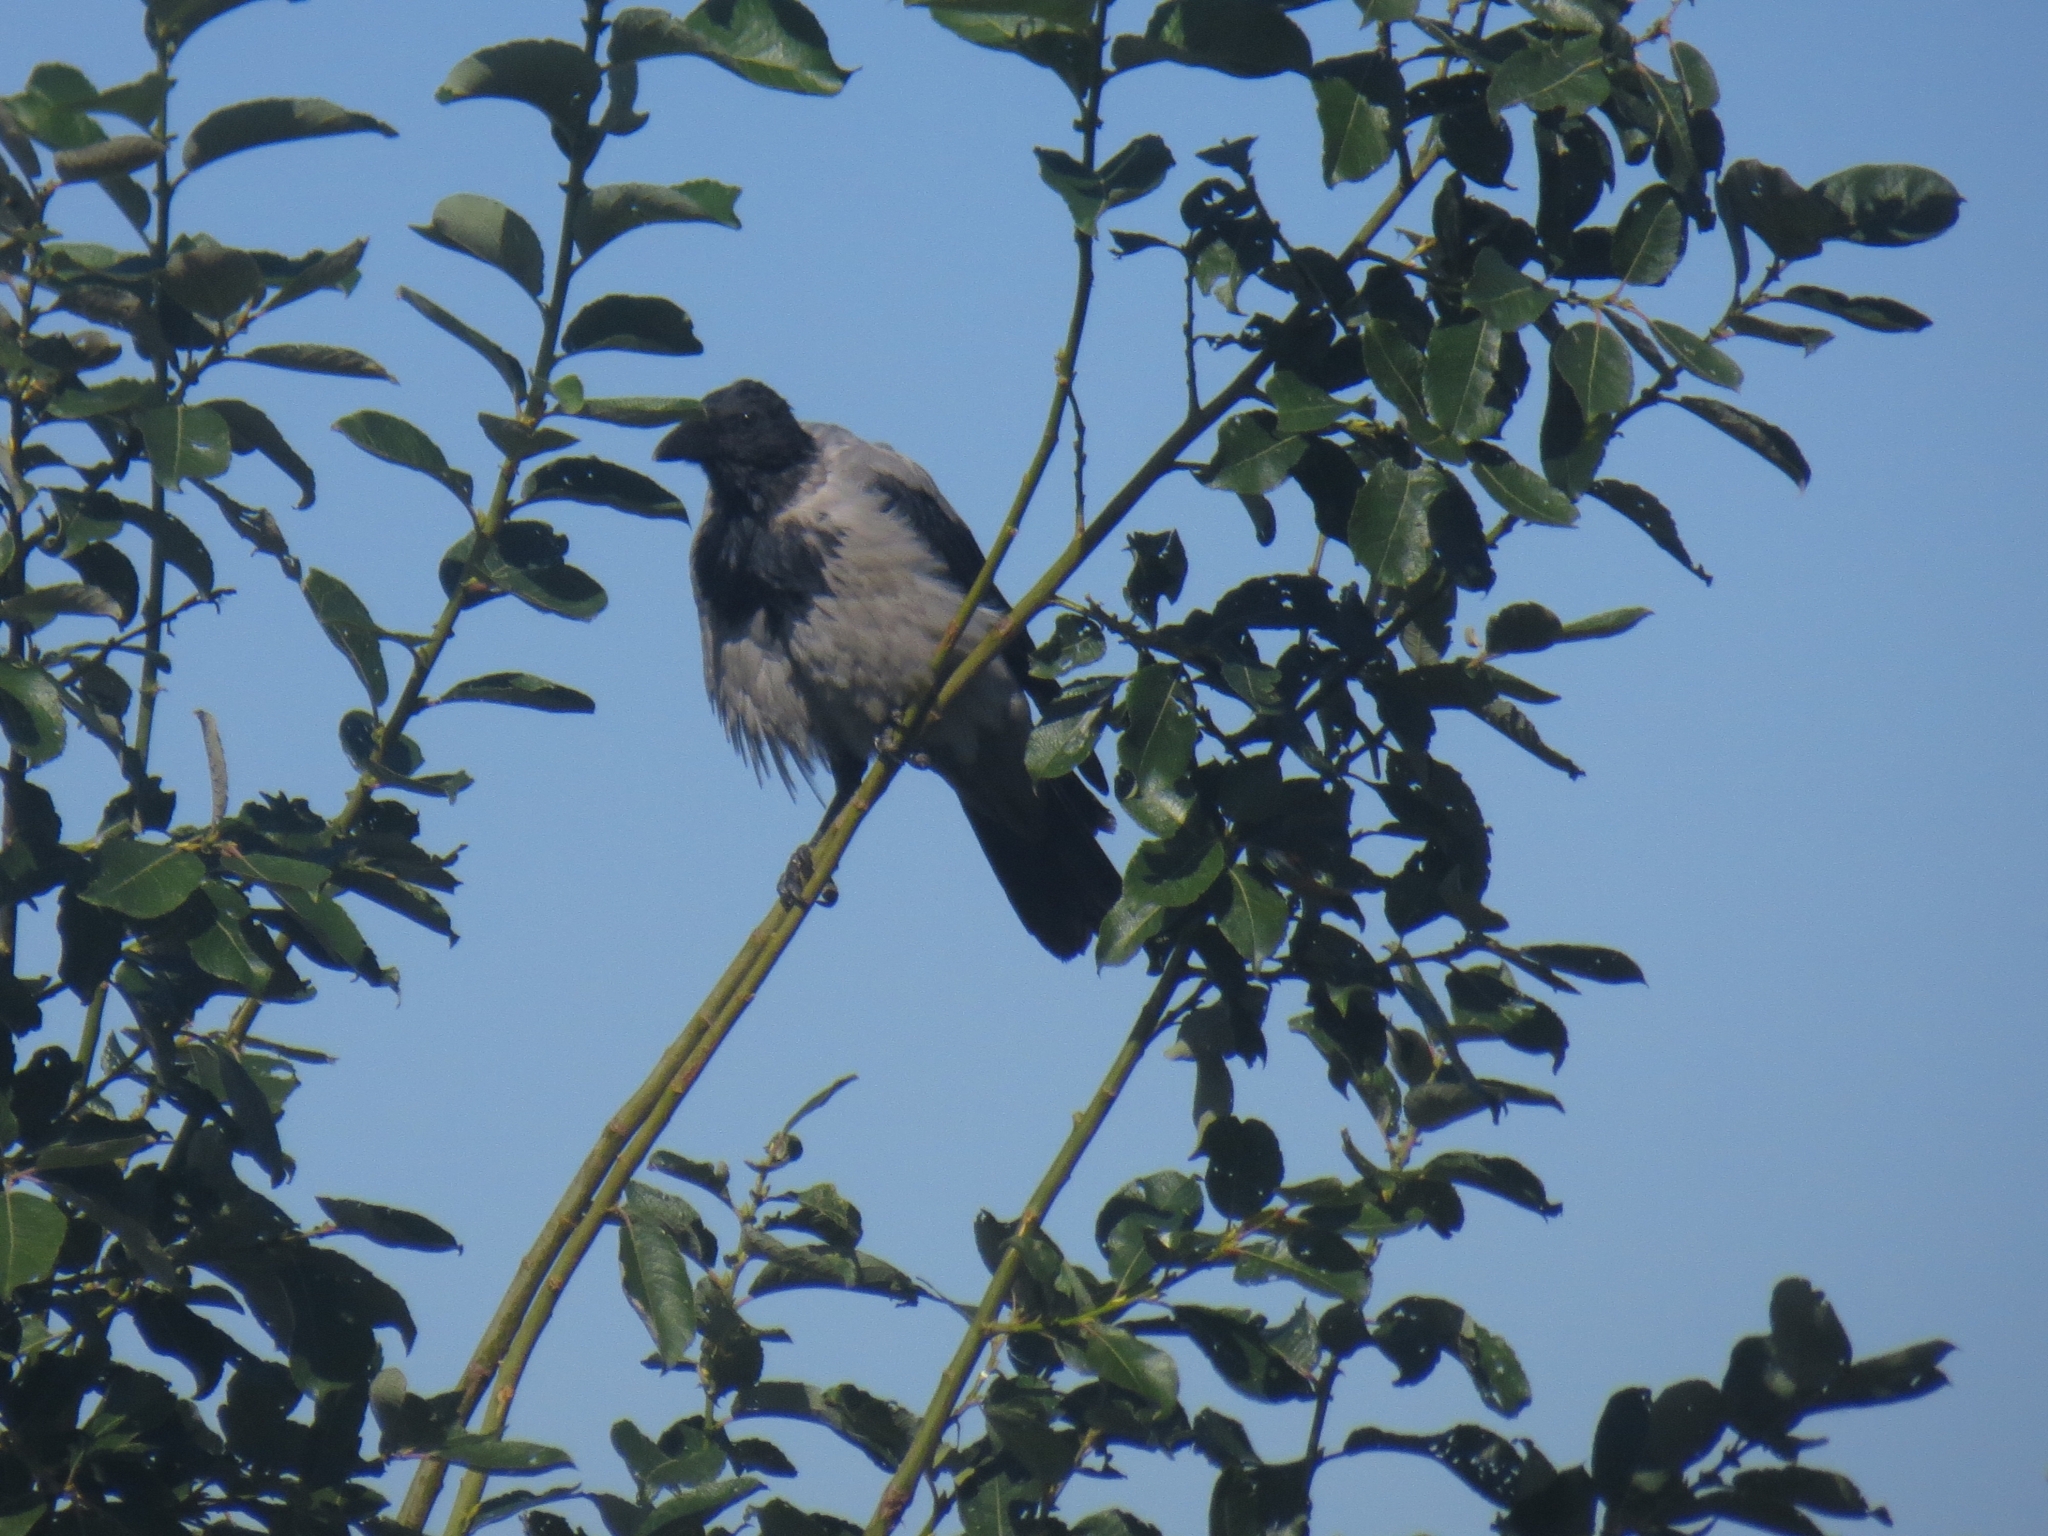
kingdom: Animalia
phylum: Chordata
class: Aves
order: Passeriformes
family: Corvidae
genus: Corvus
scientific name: Corvus cornix
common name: Hooded crow
